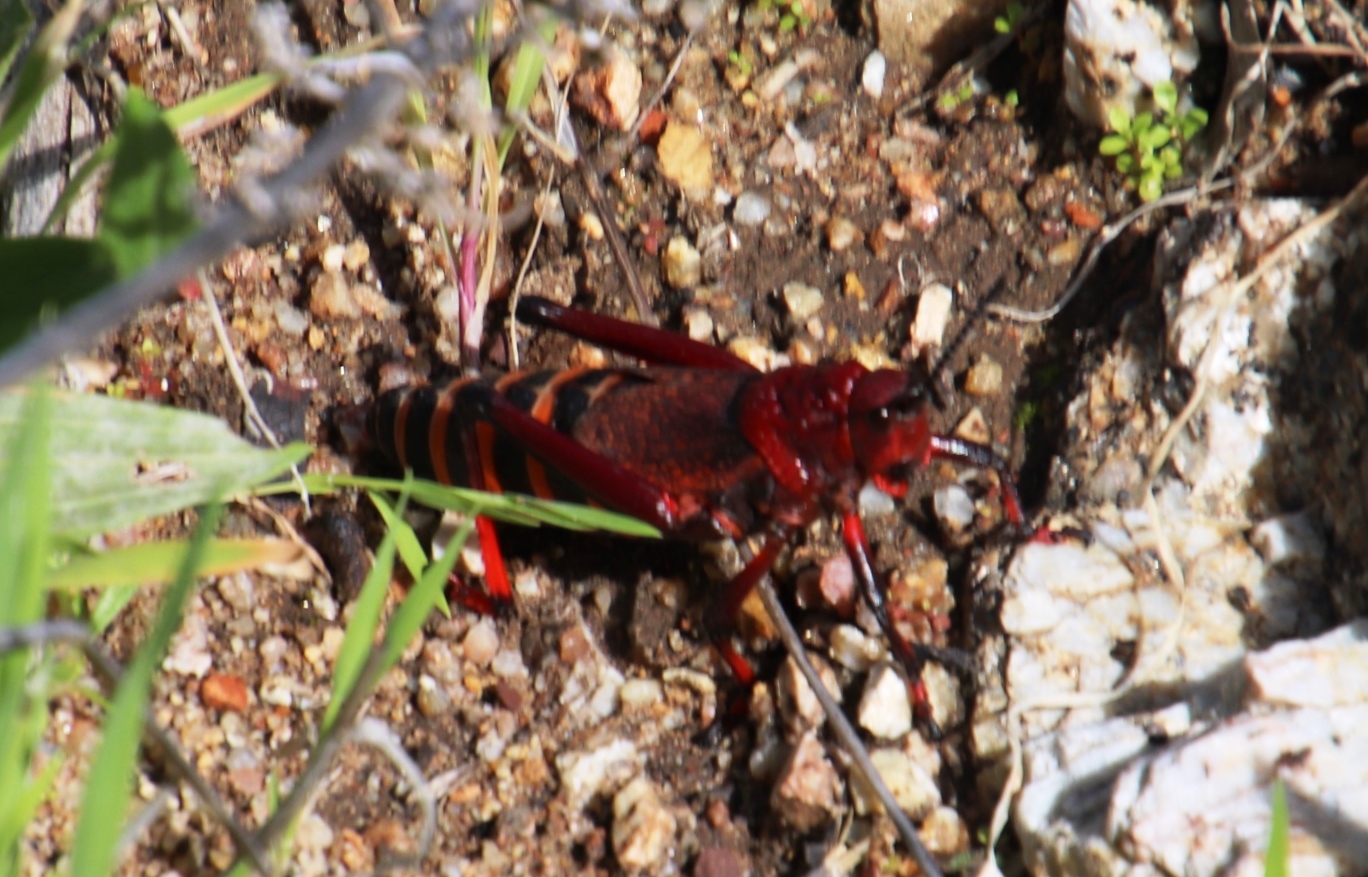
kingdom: Animalia
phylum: Arthropoda
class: Insecta
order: Orthoptera
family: Pyrgomorphidae
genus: Dictyophorus
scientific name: Dictyophorus spumans
